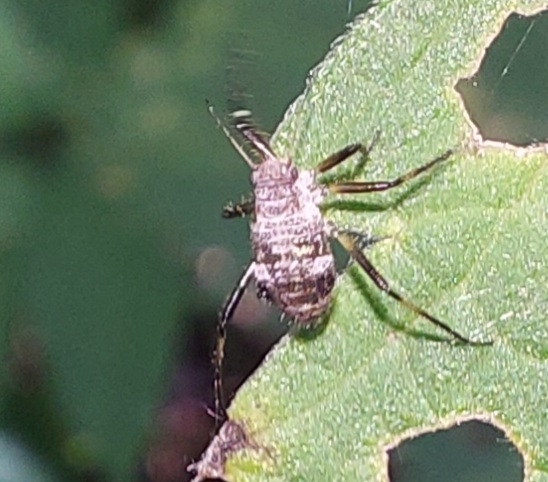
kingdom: Animalia
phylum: Arthropoda
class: Insecta
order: Hemiptera
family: Aphididae
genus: Cinara
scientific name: Cinara
